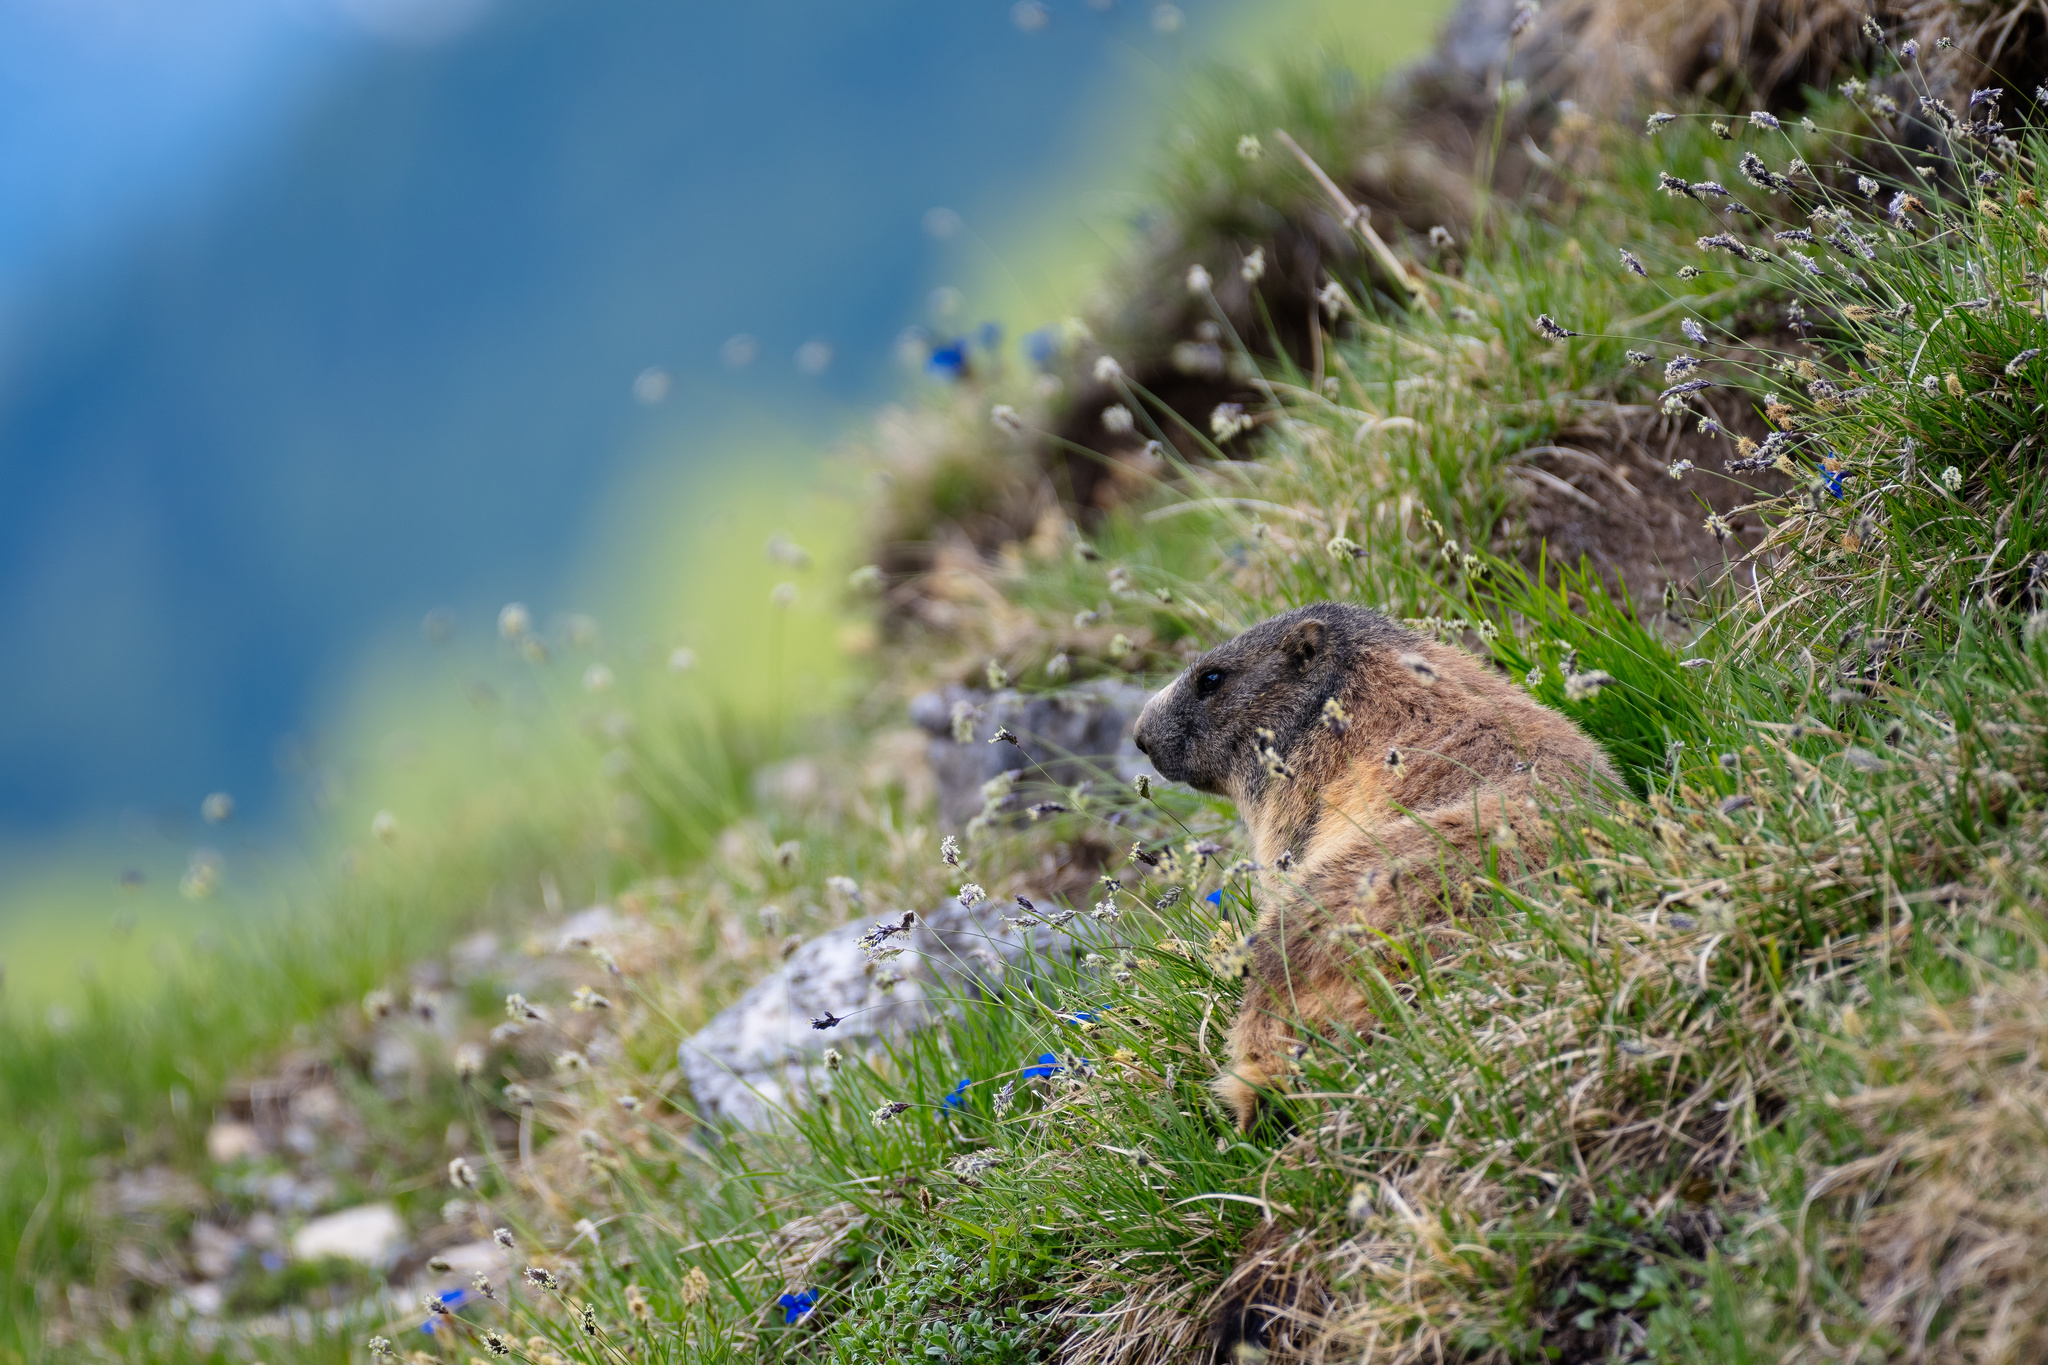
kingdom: Animalia
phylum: Chordata
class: Mammalia
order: Rodentia
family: Sciuridae
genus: Marmota
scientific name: Marmota marmota
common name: Alpine marmot
